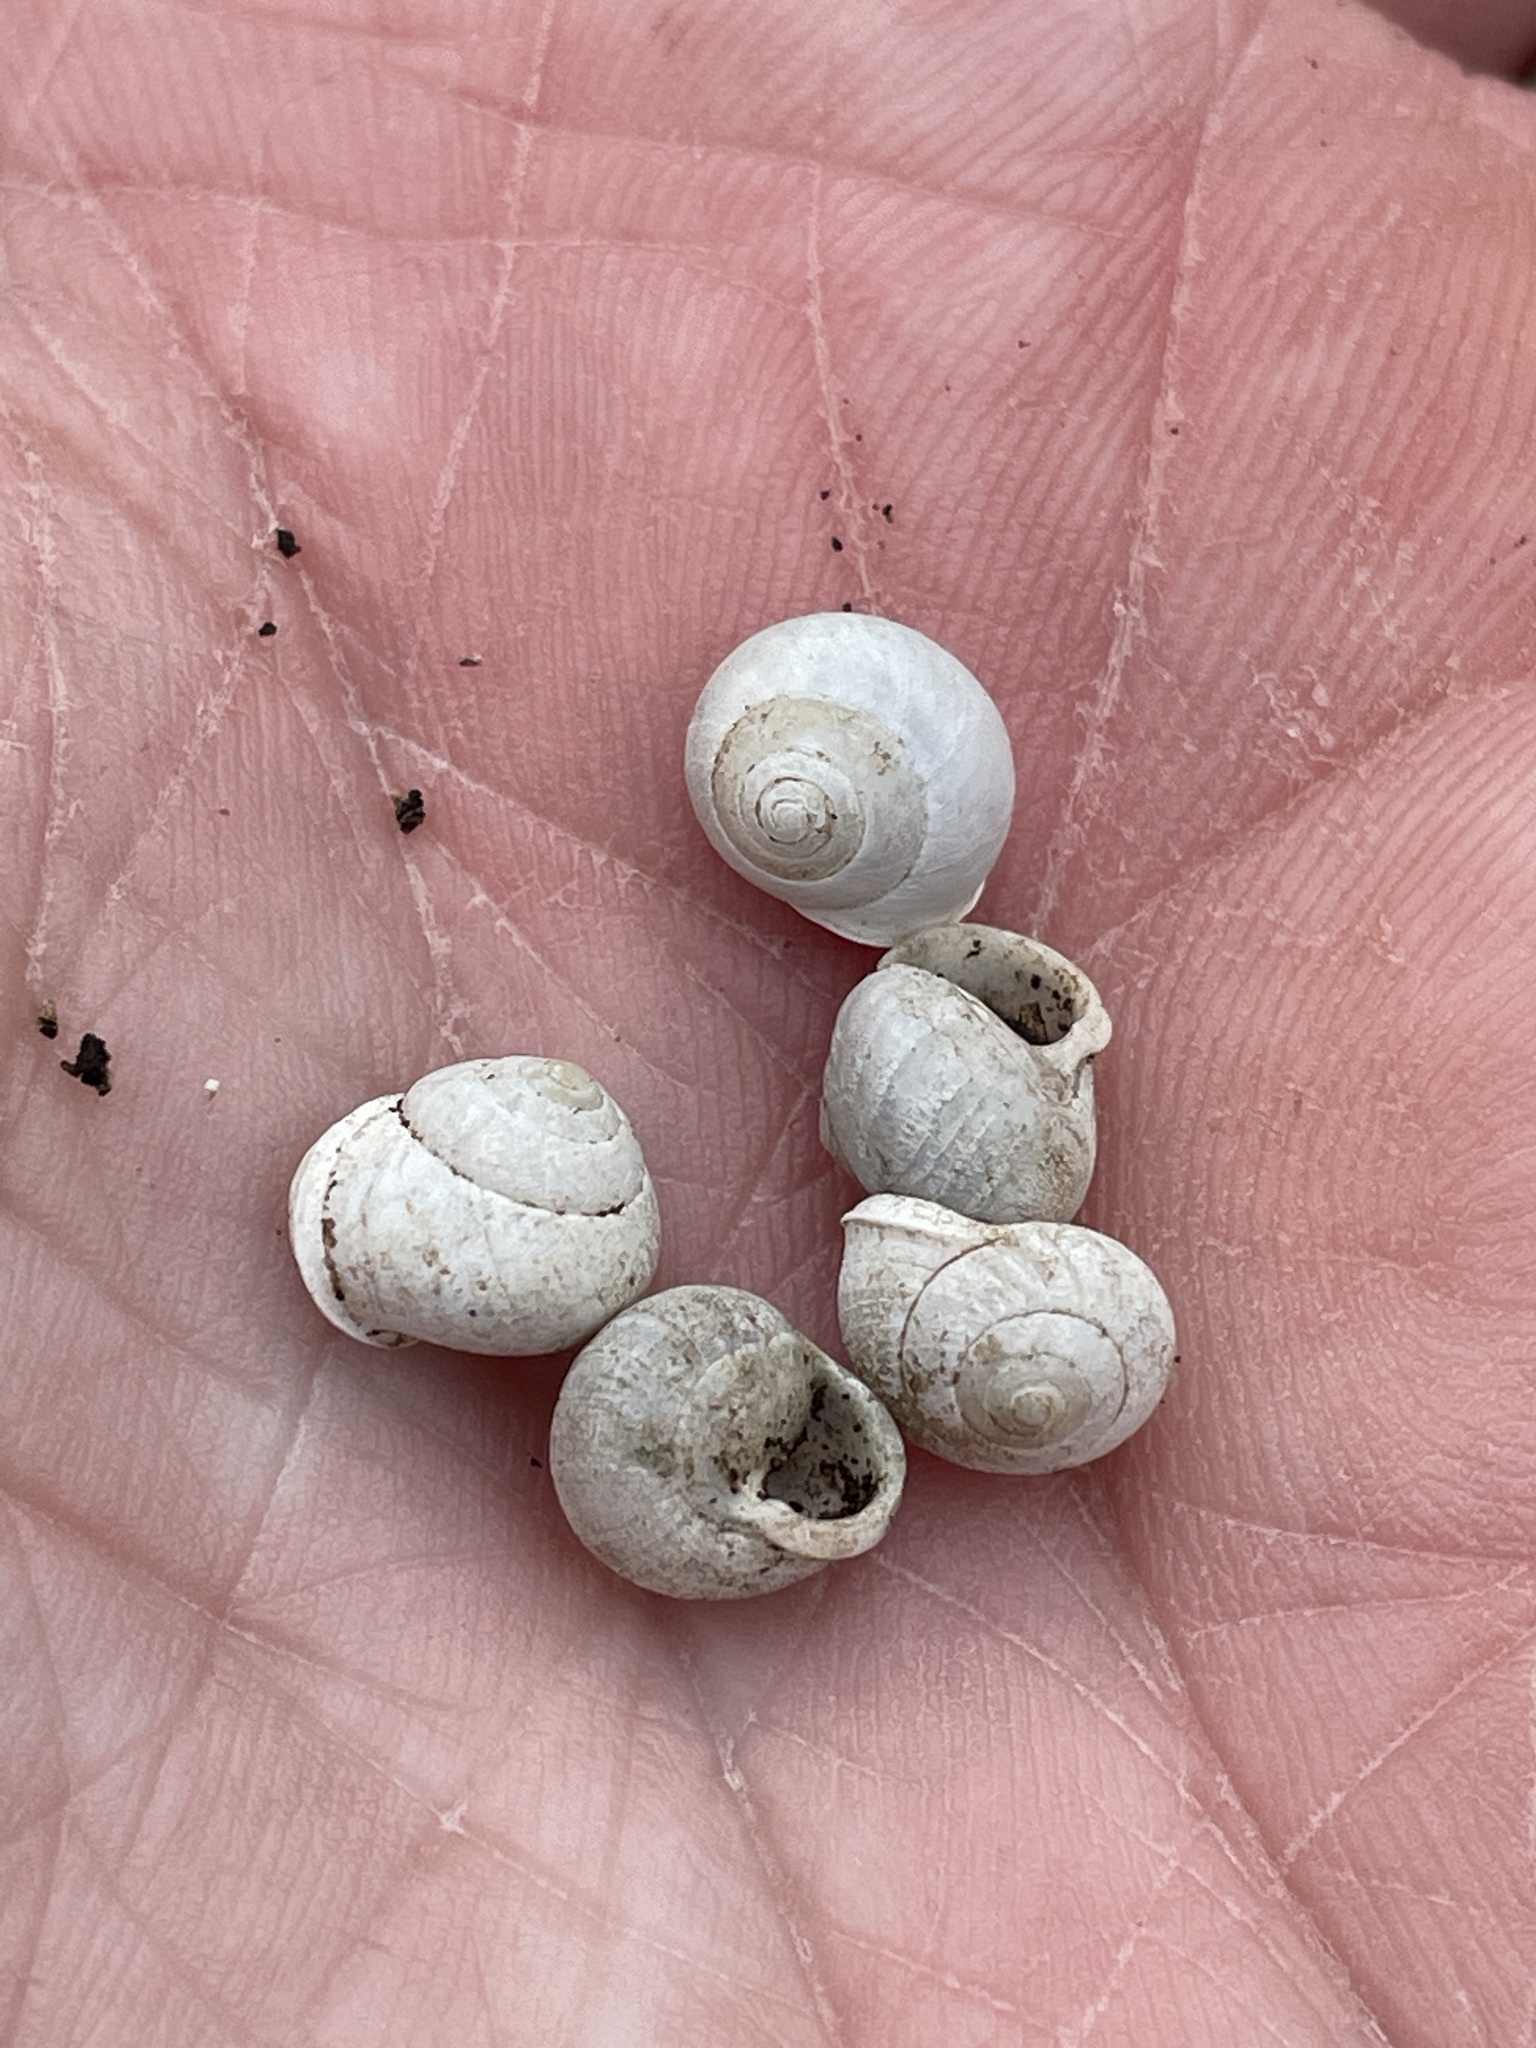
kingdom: Animalia
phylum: Mollusca
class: Gastropoda
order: Cycloneritida
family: Helicinidae
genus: Helicina
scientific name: Helicina orbiculata
